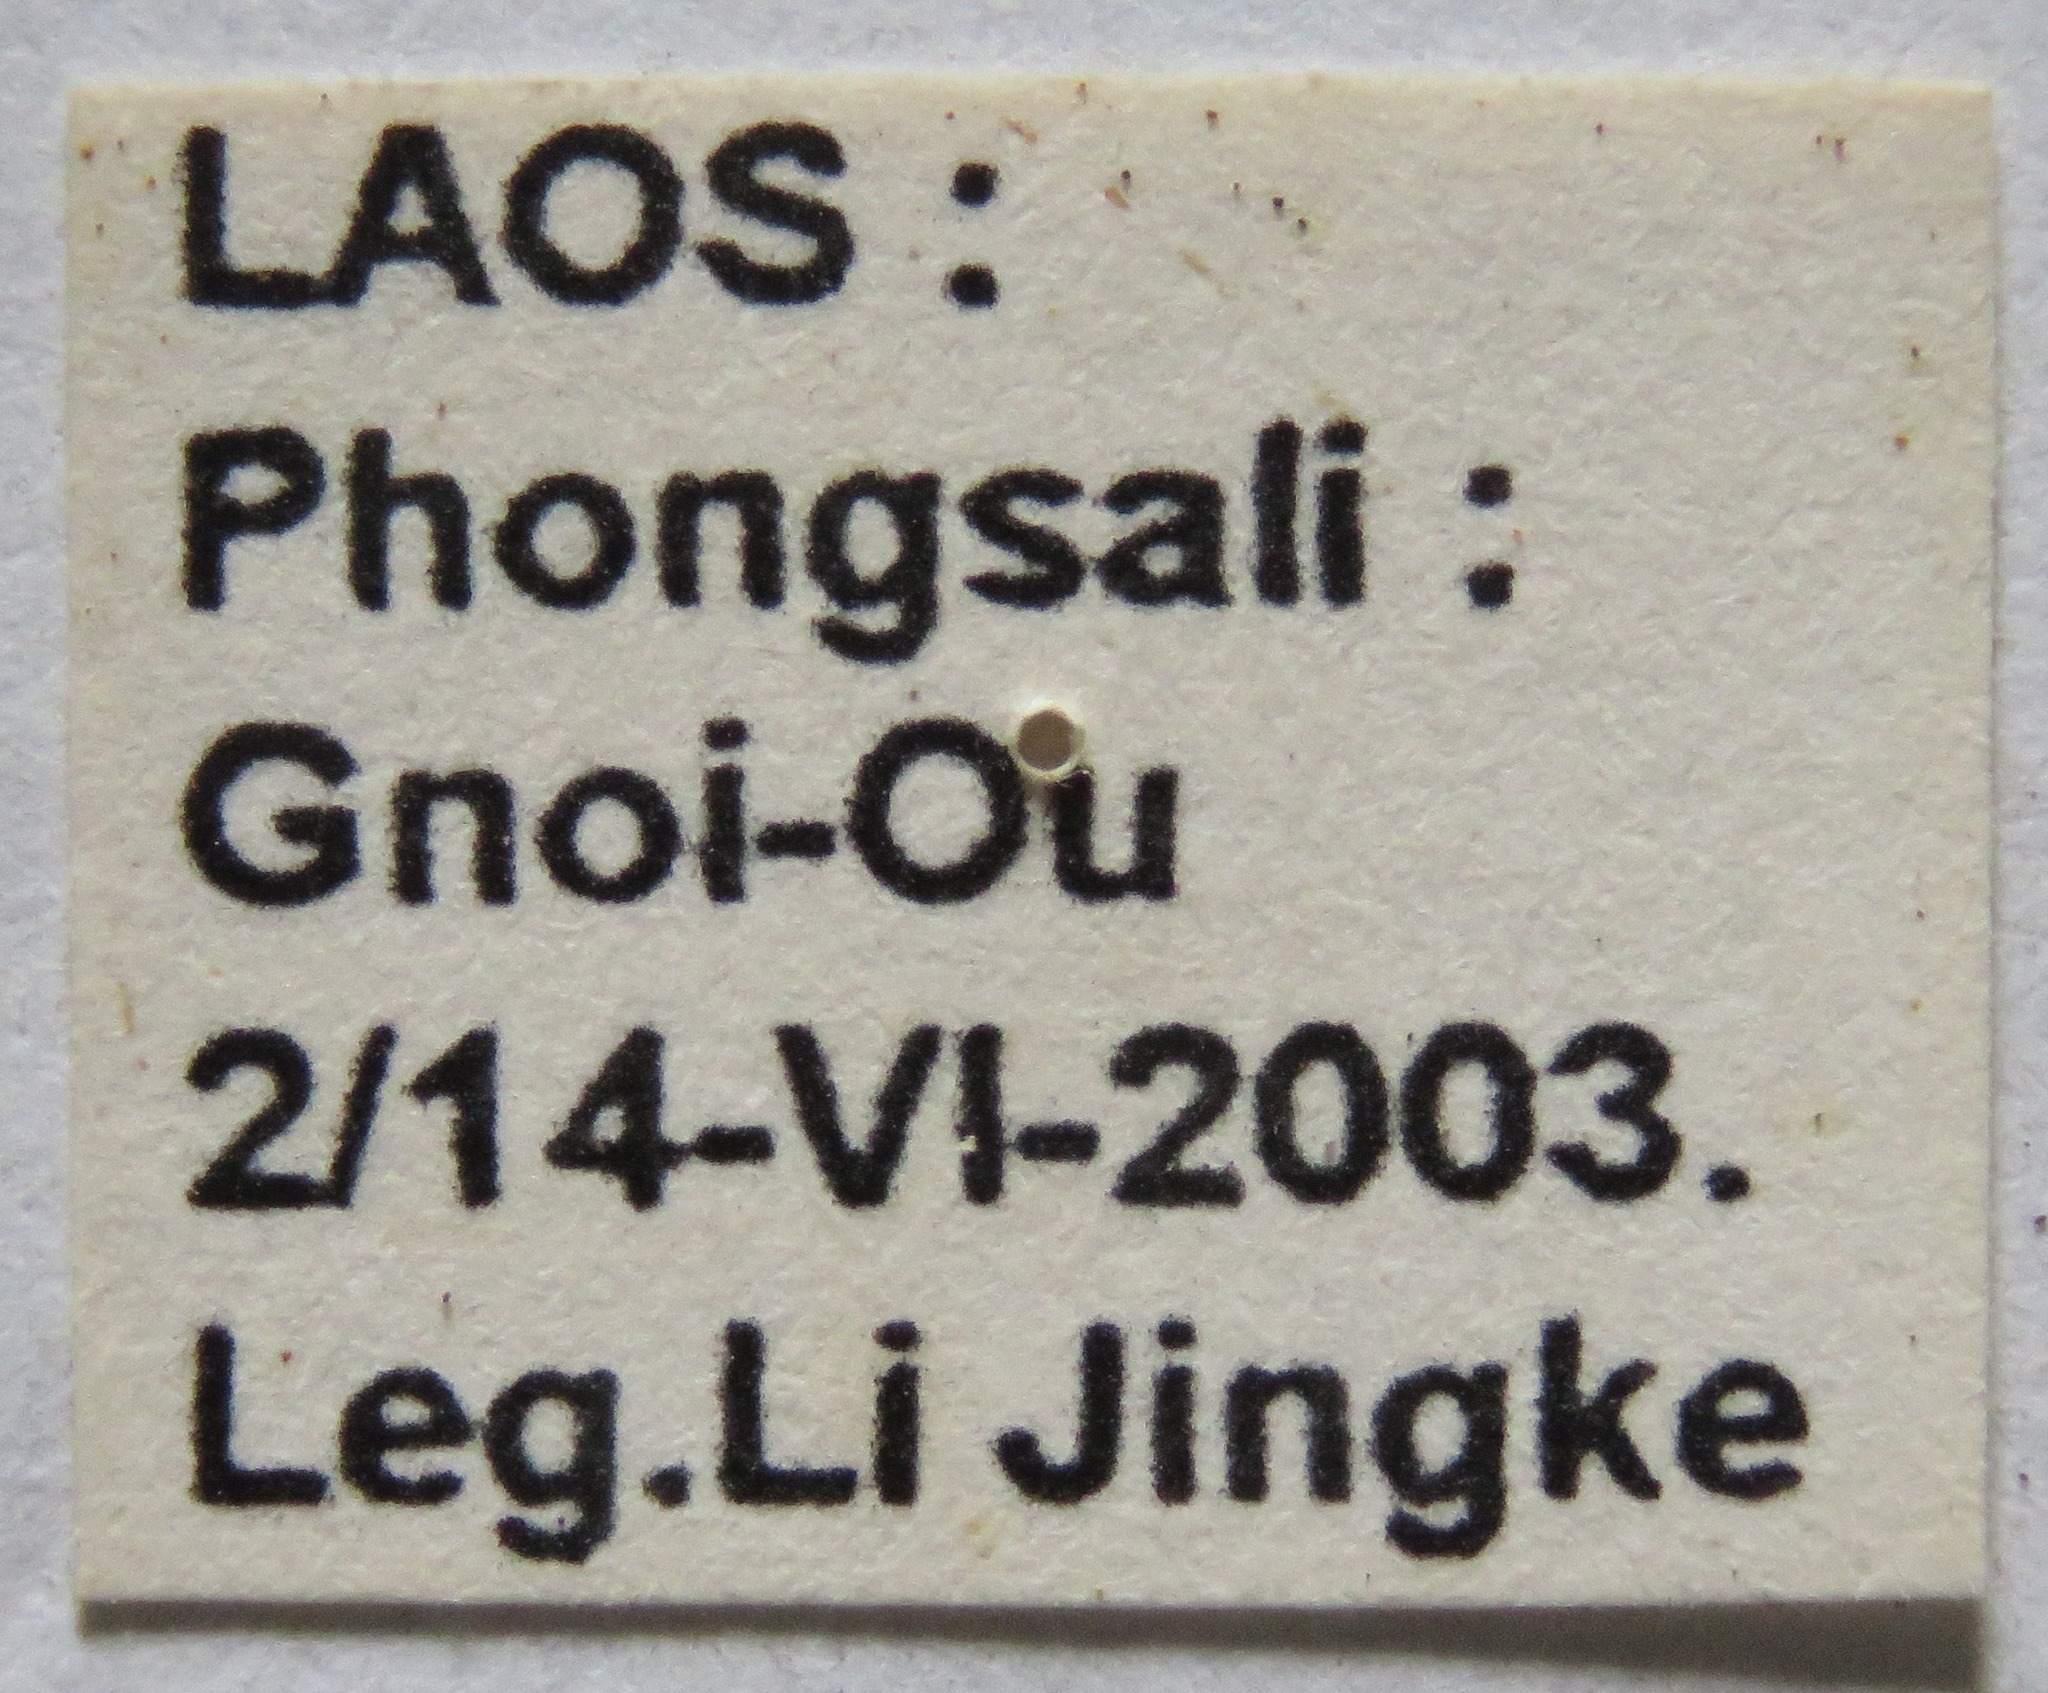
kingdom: Animalia
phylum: Arthropoda
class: Insecta
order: Coleoptera
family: Lucanidae
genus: Prosopocoilus
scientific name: Prosopocoilus jenkinsi
